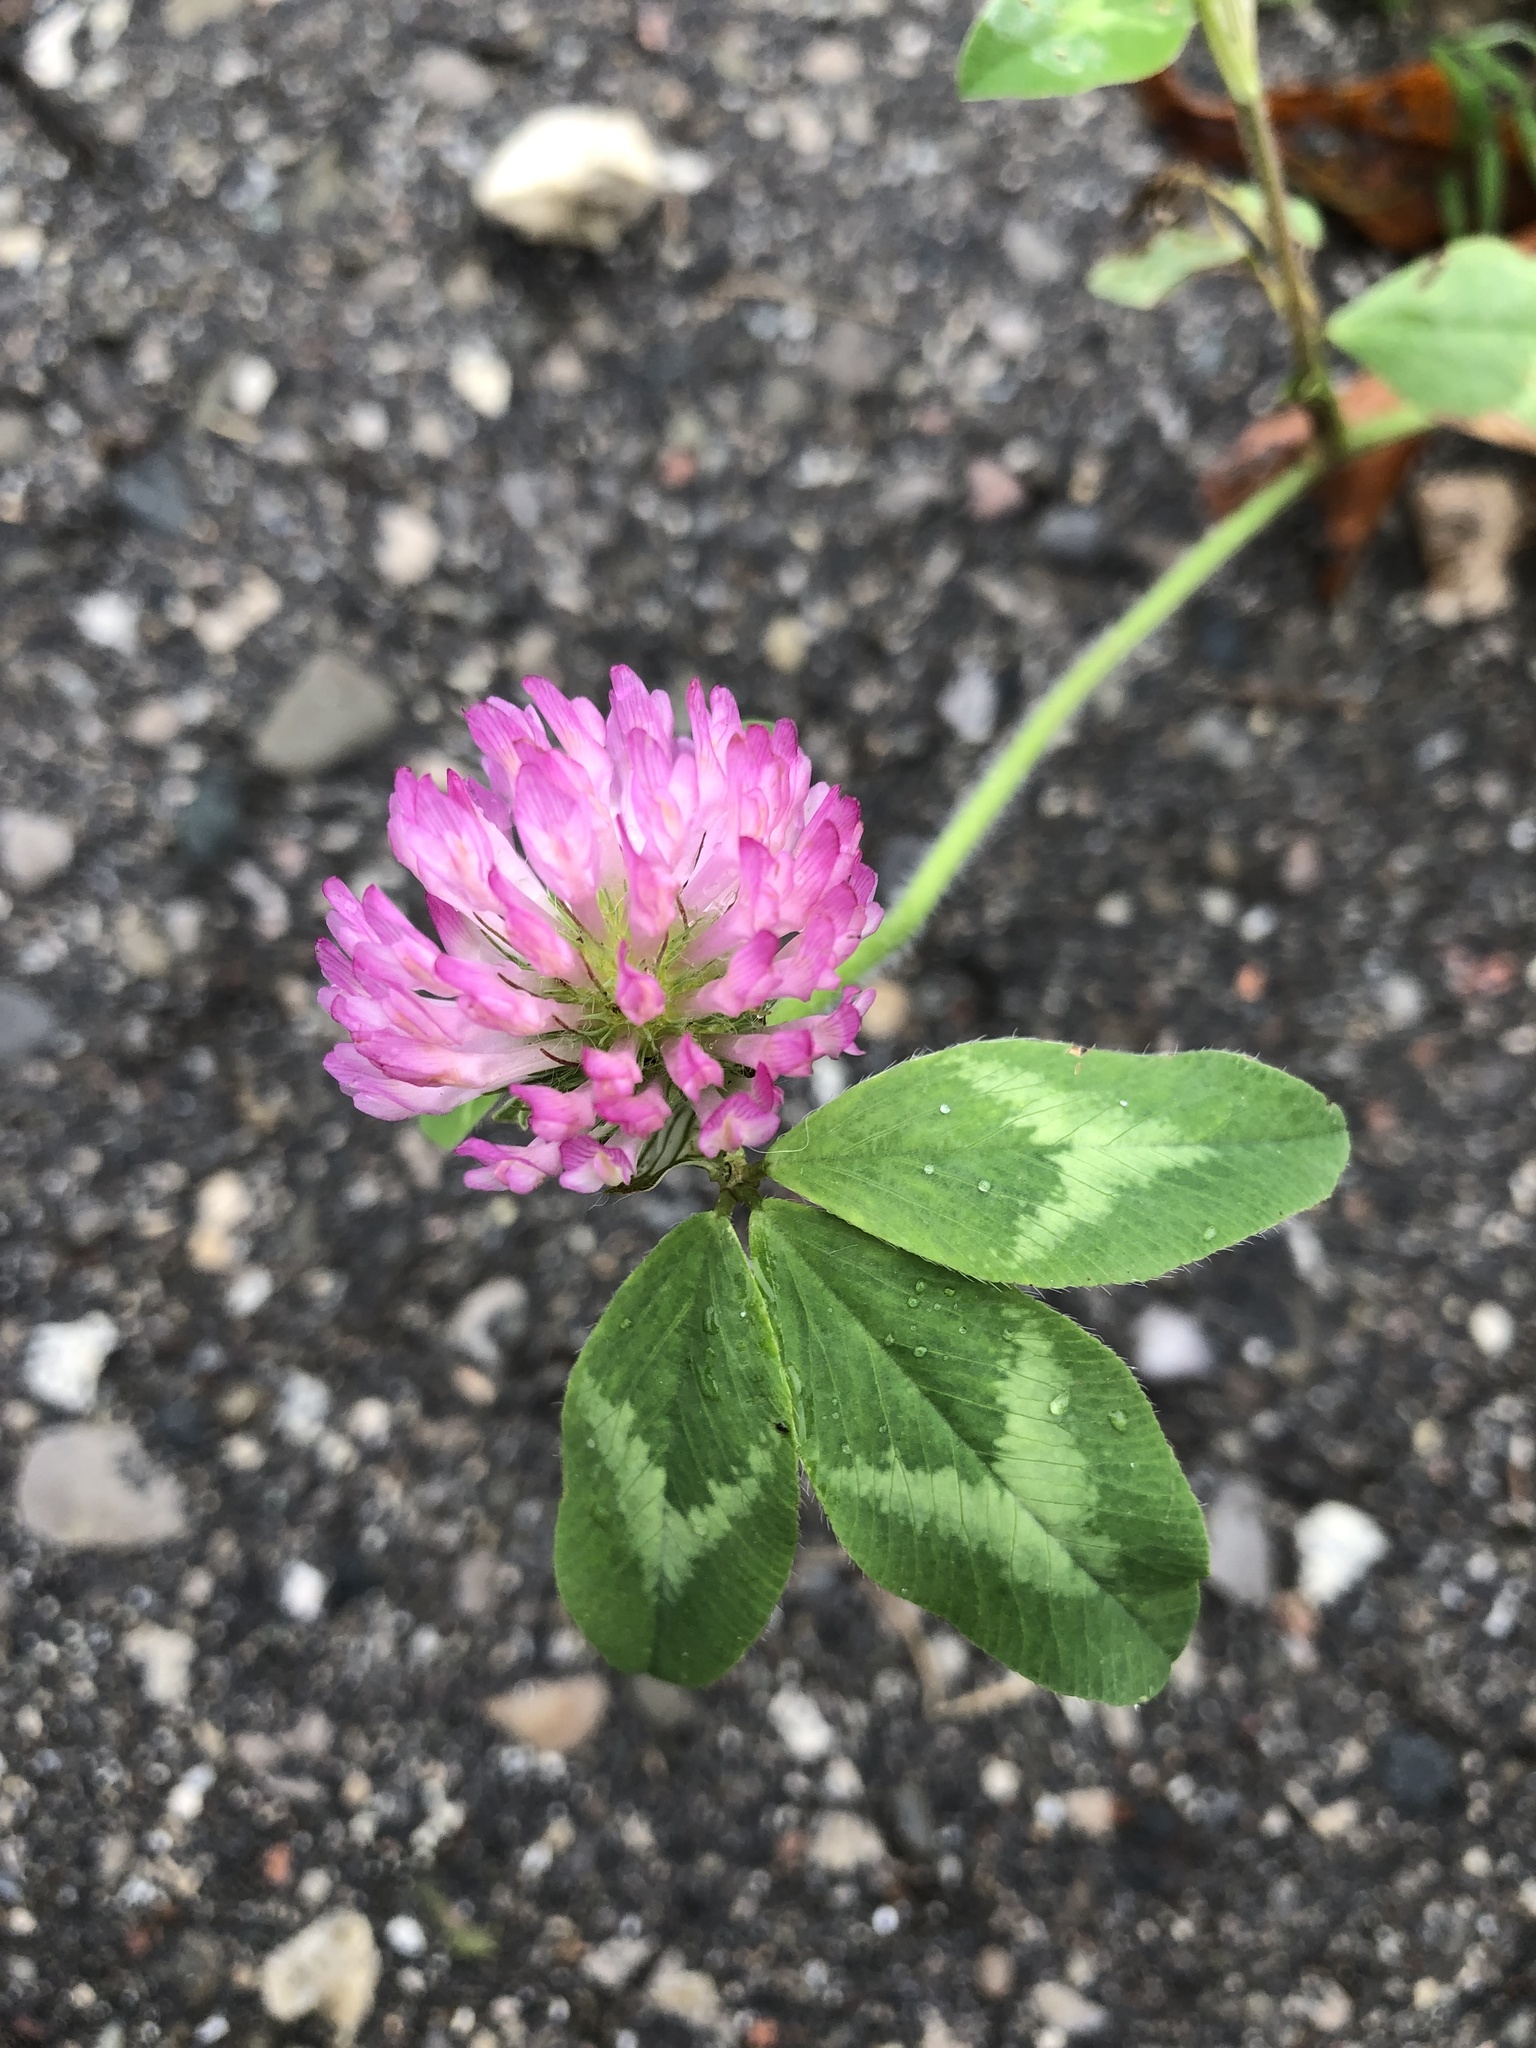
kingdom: Plantae
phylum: Tracheophyta
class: Magnoliopsida
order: Fabales
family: Fabaceae
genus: Trifolium
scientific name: Trifolium pratense
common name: Red clover
